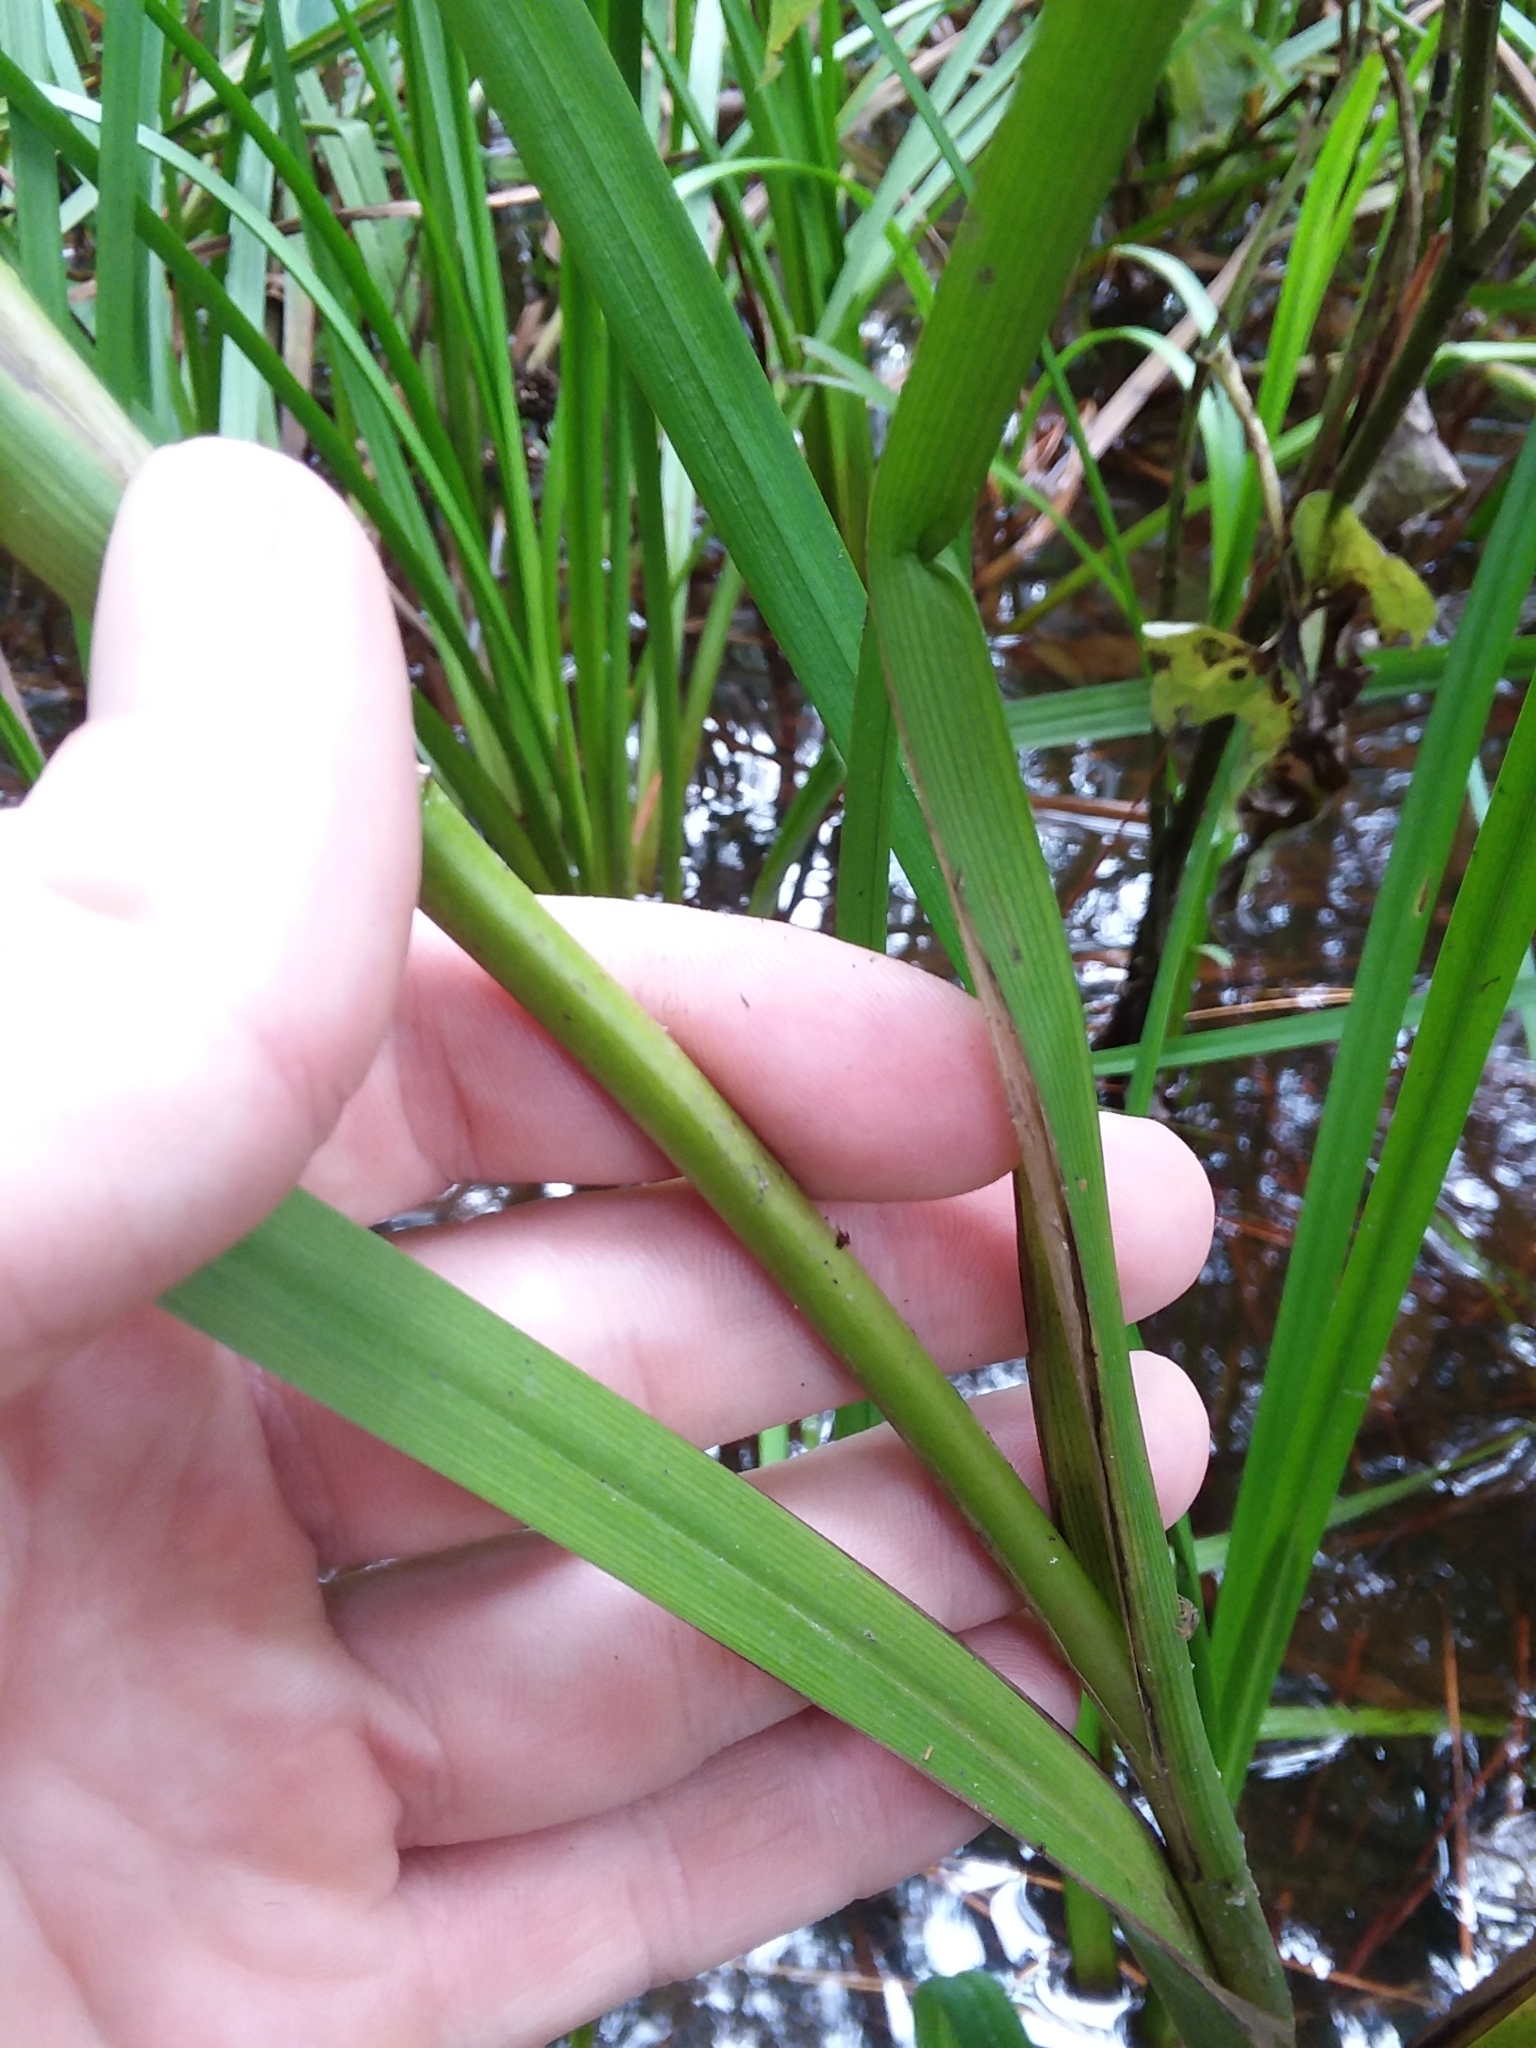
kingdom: Plantae
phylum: Tracheophyta
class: Liliopsida
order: Poales
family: Typhaceae
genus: Sparganium
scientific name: Sparganium americanum
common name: American burreed
